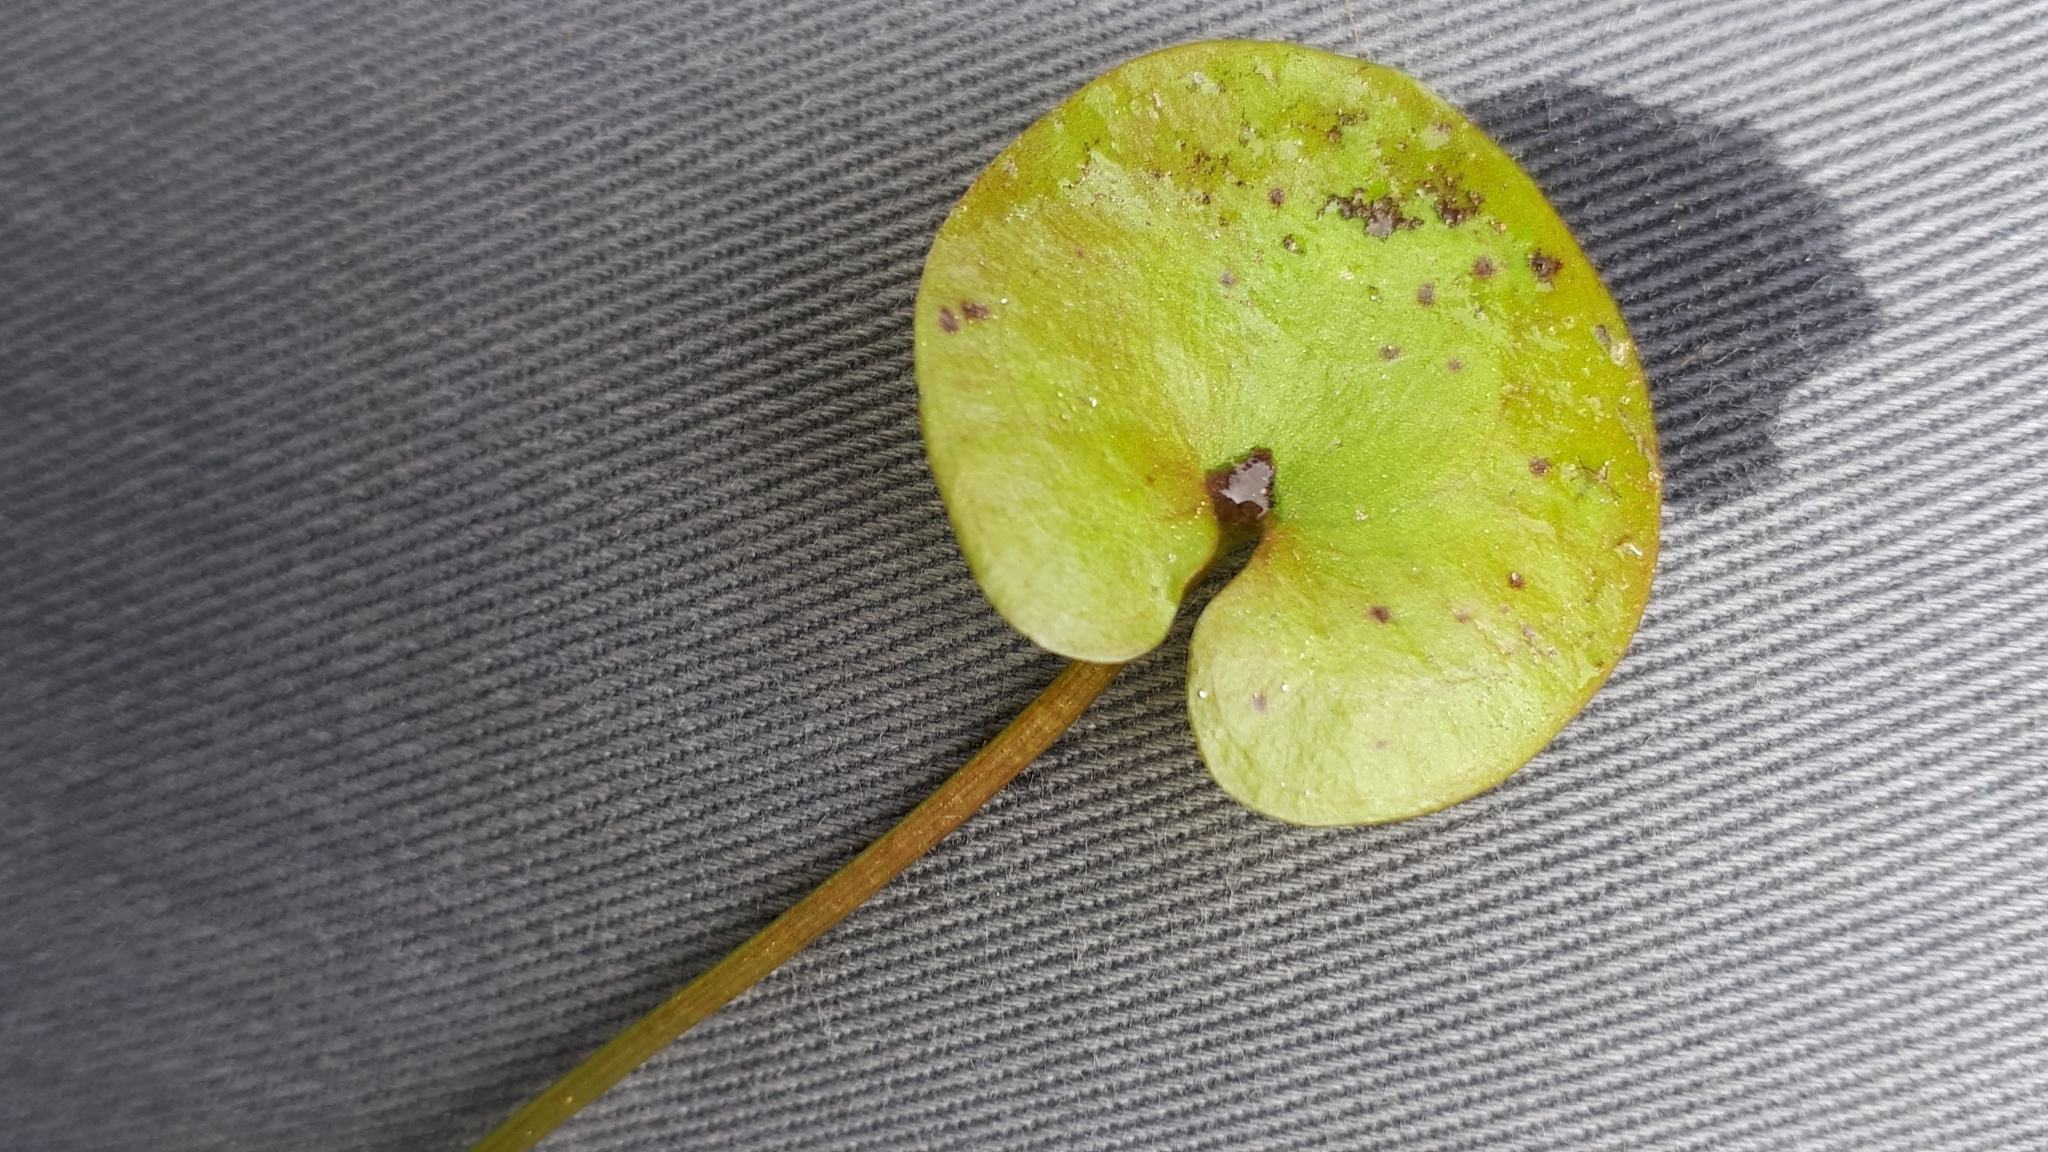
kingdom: Plantae
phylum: Tracheophyta
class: Liliopsida
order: Alismatales
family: Hydrocharitaceae
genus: Hydrocharis
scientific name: Hydrocharis morsus-ranae
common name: Frogbit
